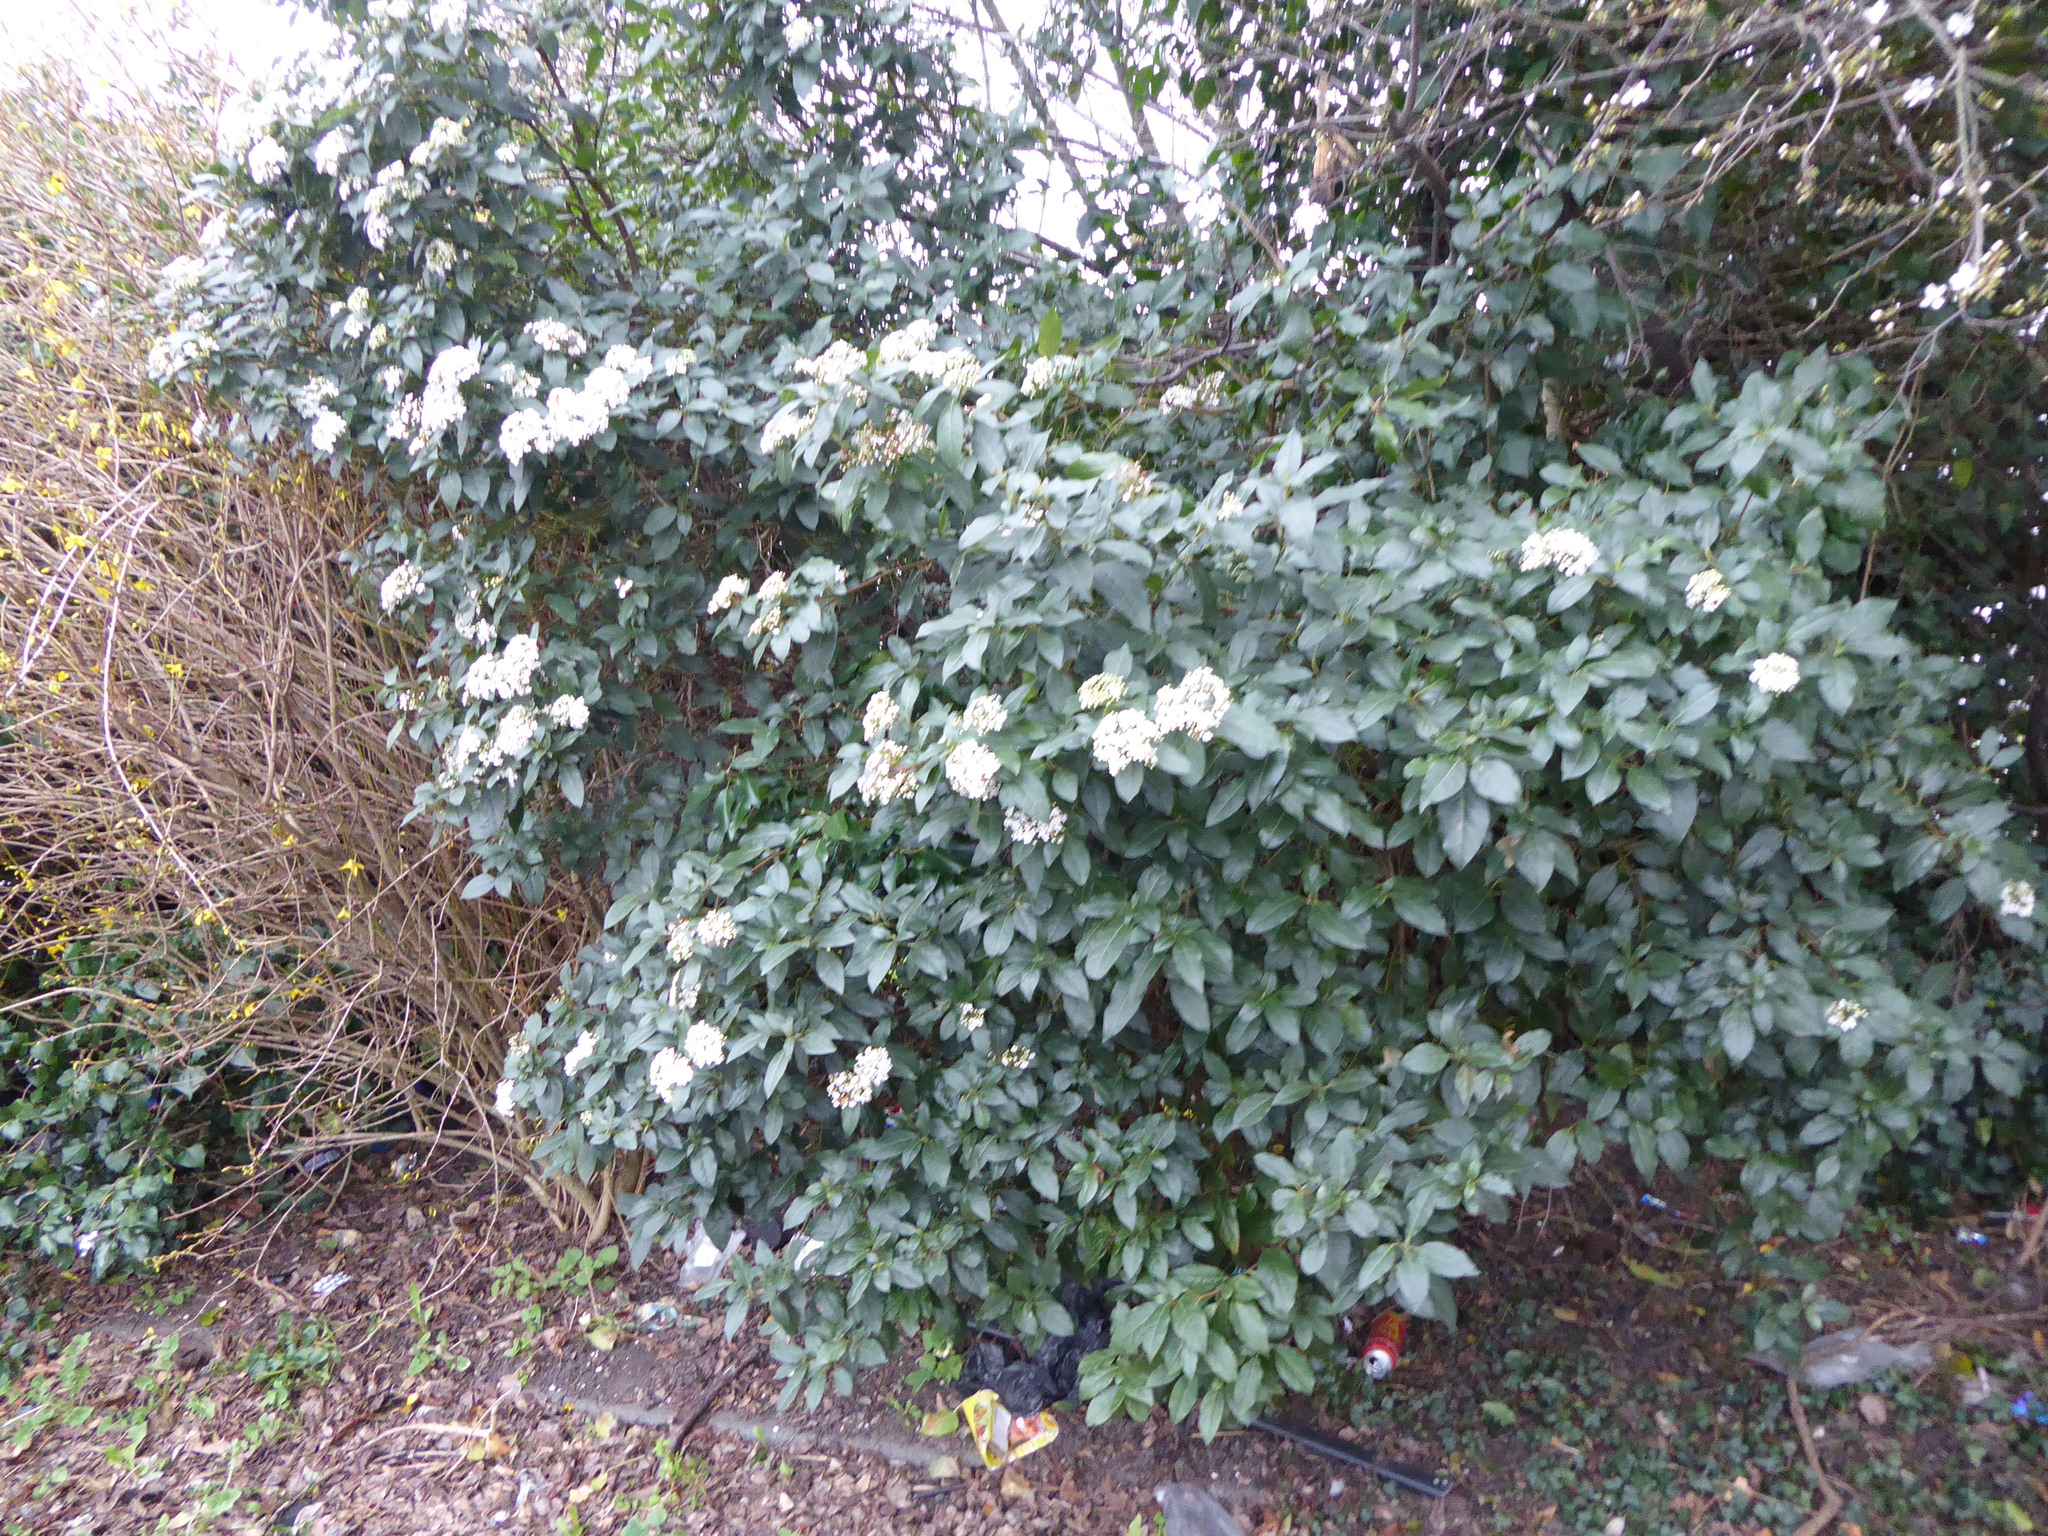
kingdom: Plantae
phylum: Tracheophyta
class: Magnoliopsida
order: Dipsacales
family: Viburnaceae
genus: Viburnum
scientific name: Viburnum tinus
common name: Laurustinus
